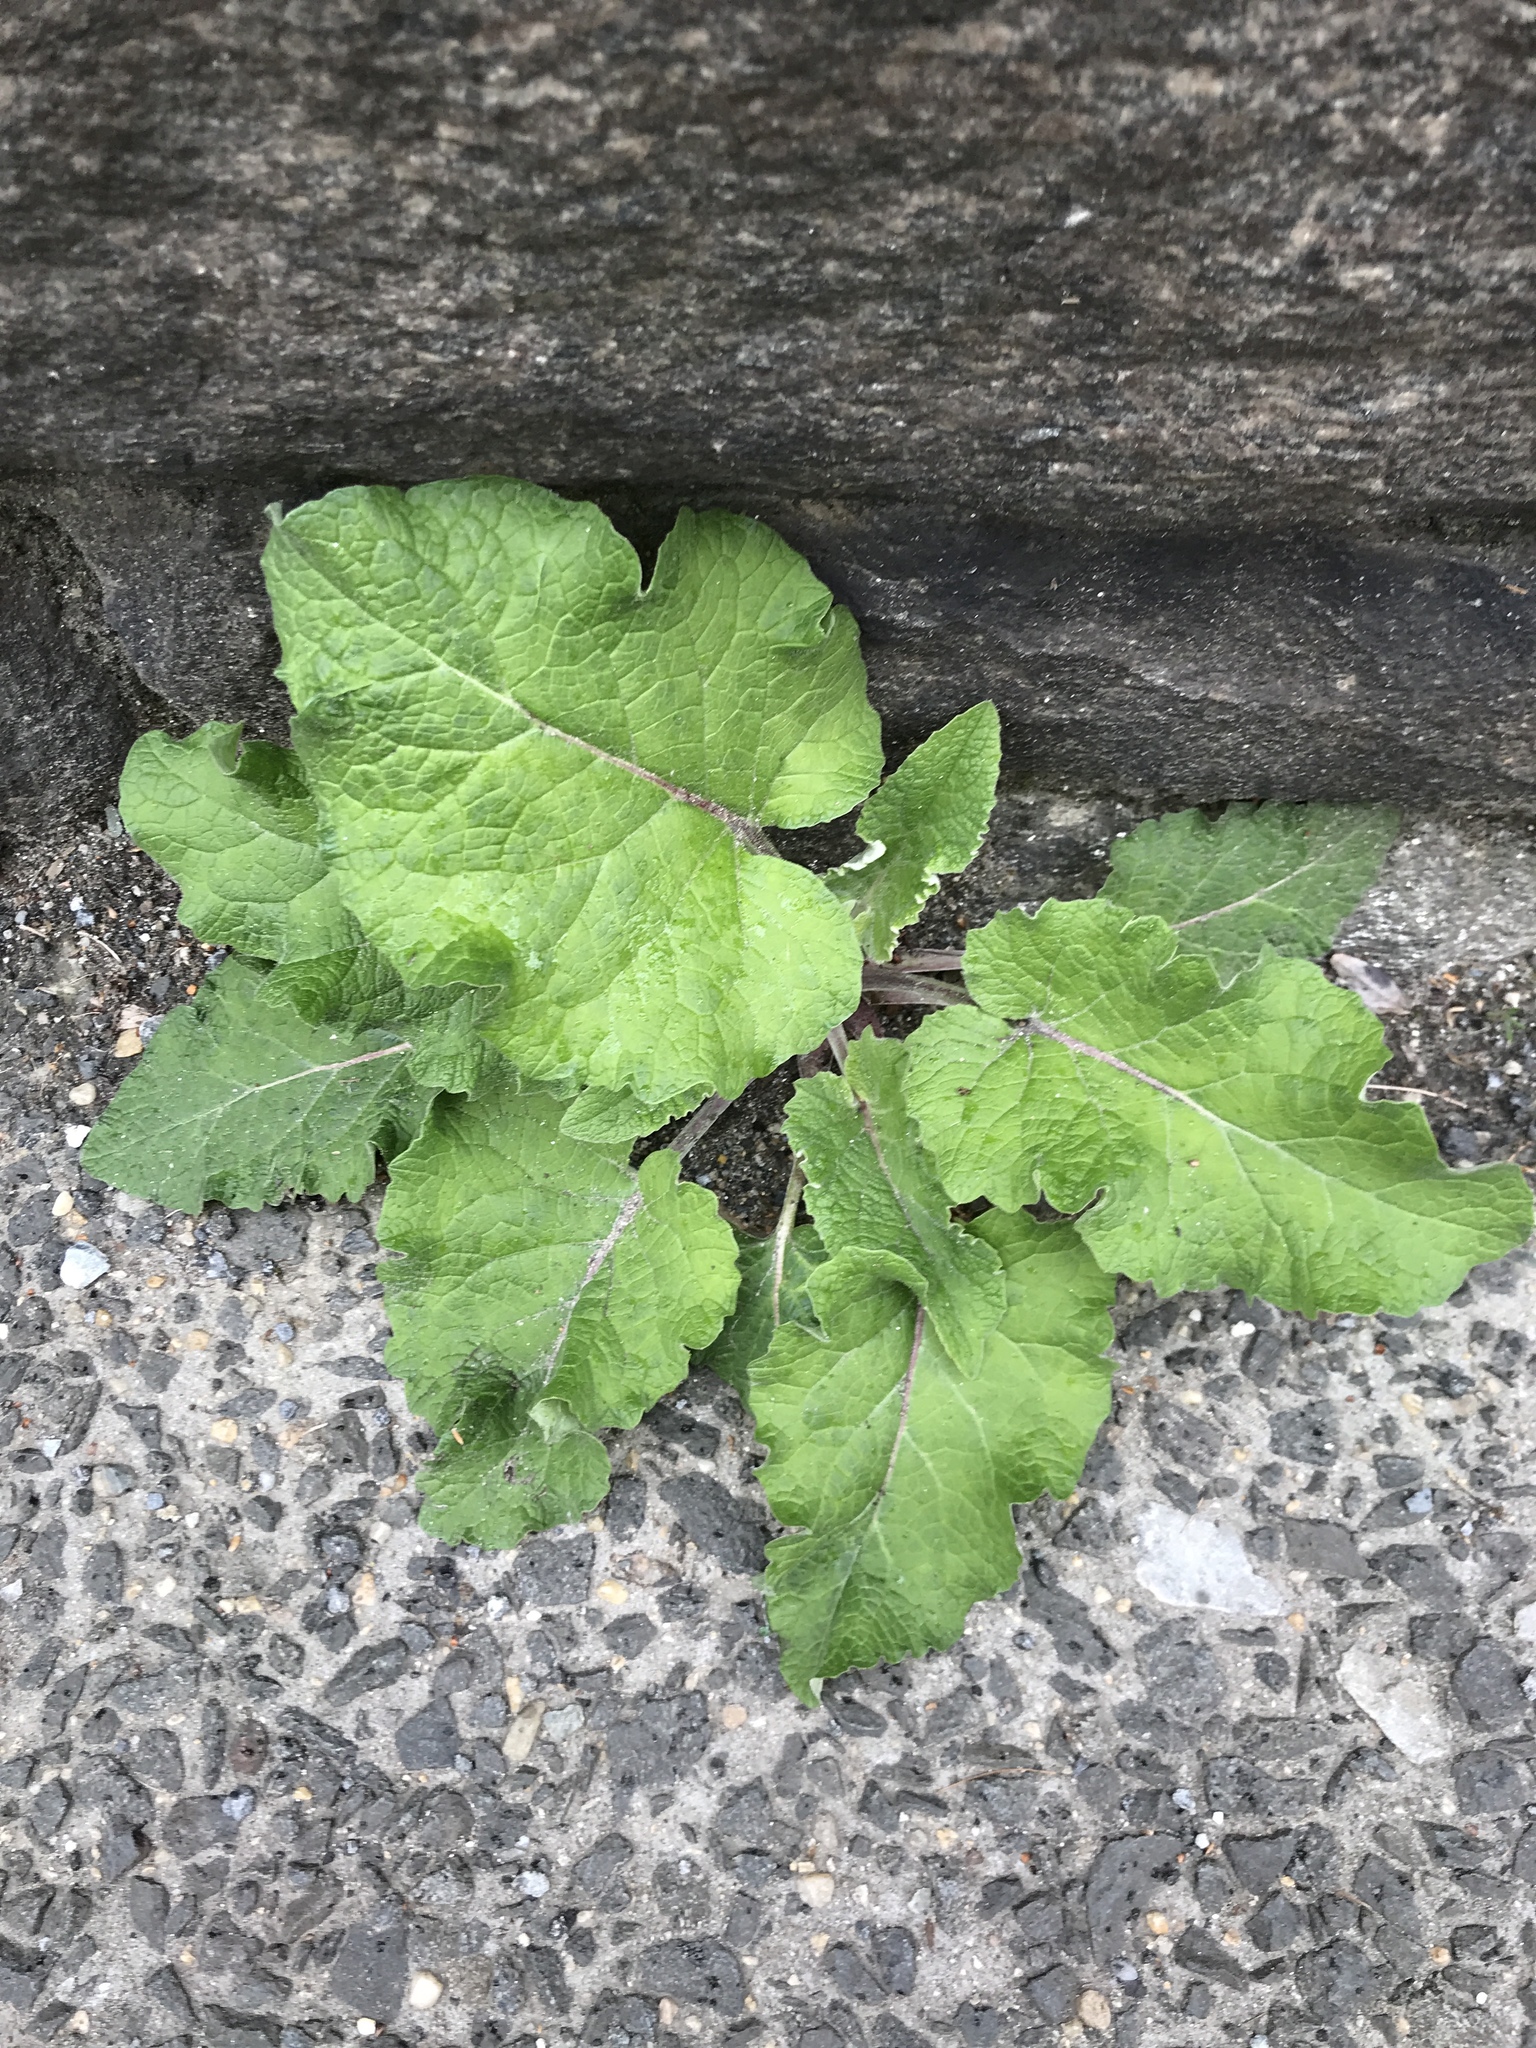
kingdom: Plantae
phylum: Tracheophyta
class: Magnoliopsida
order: Asterales
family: Asteraceae
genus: Arctium
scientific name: Arctium
